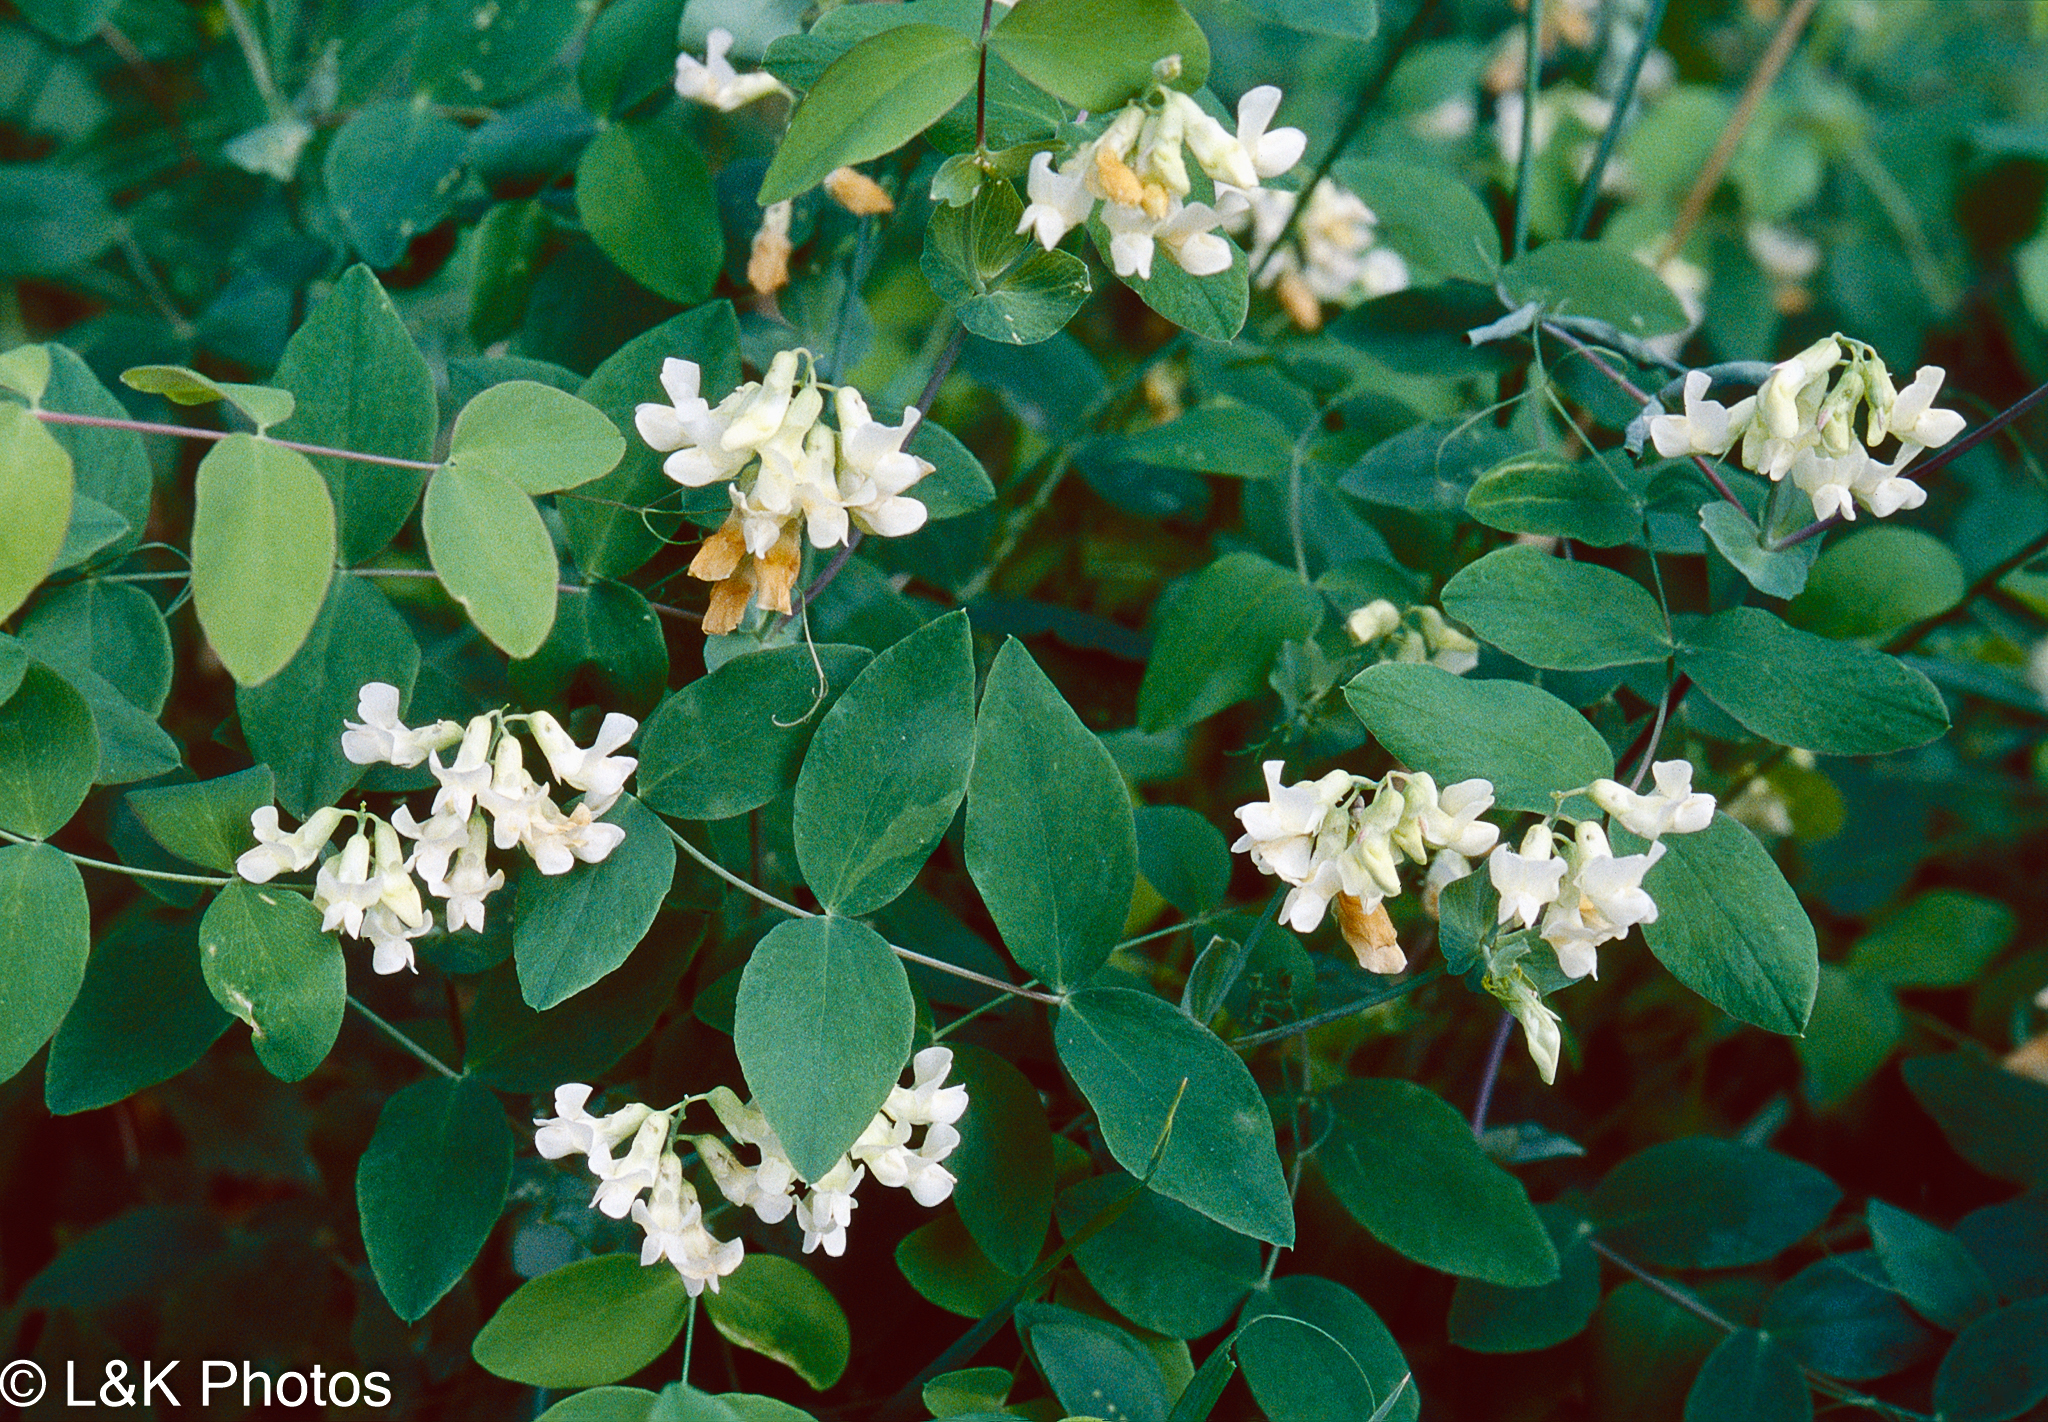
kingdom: Plantae
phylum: Tracheophyta
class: Magnoliopsida
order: Fabales
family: Fabaceae
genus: Lathyrus
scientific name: Lathyrus ochroleucus
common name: Pale vetchling
